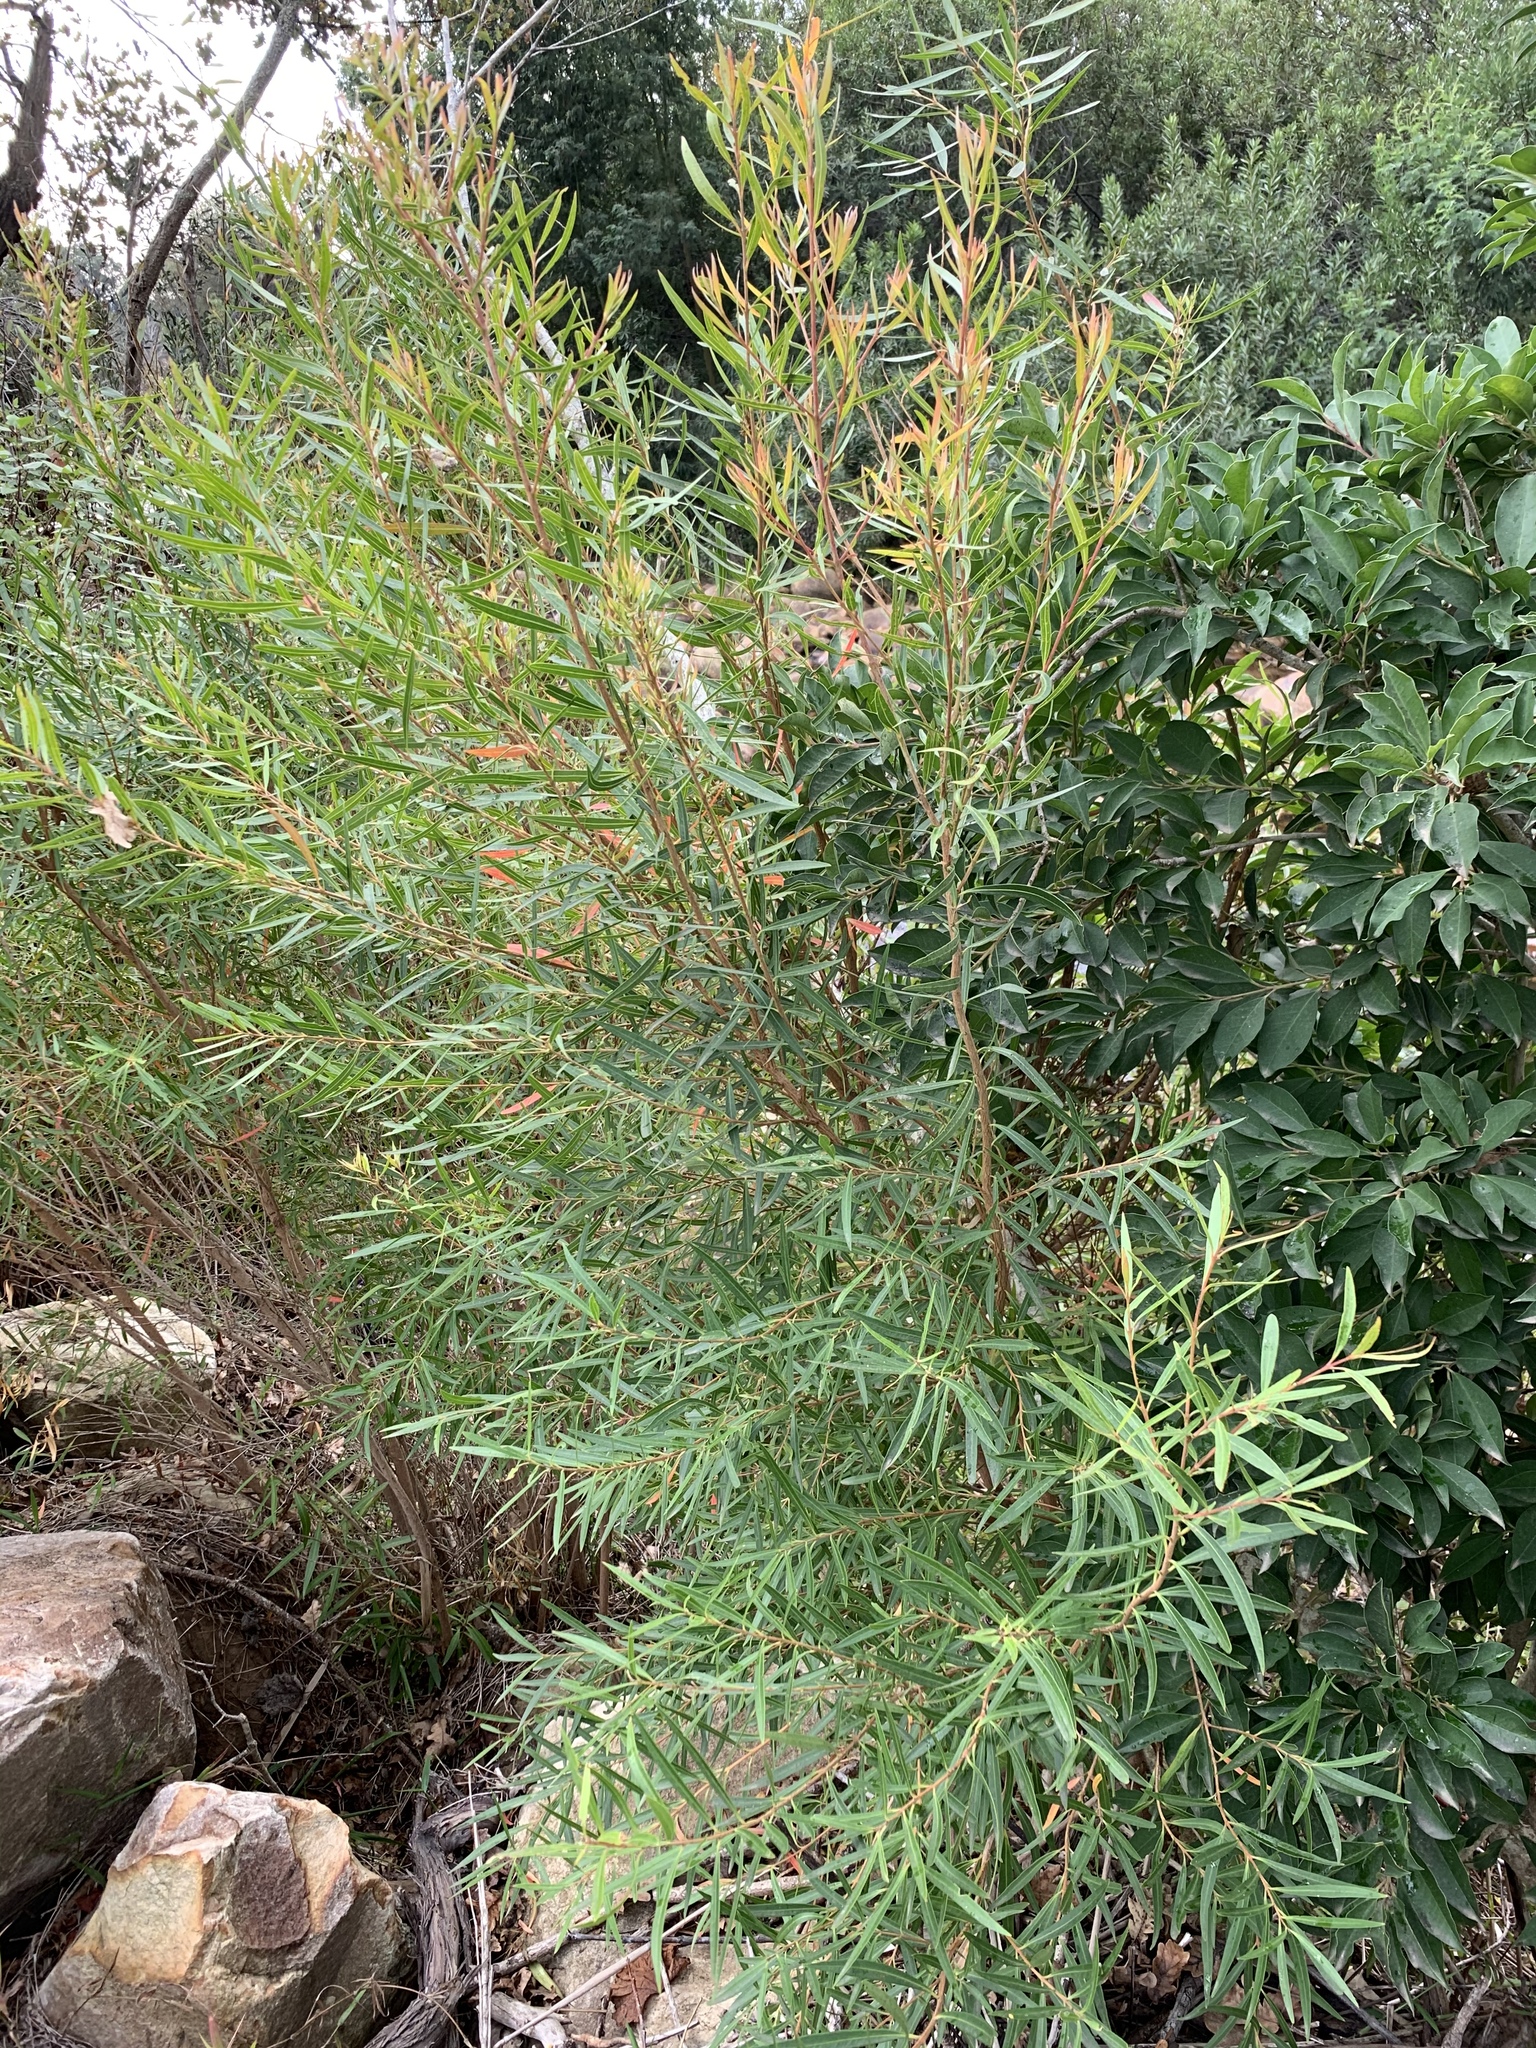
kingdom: Plantae
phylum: Tracheophyta
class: Magnoliopsida
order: Myrtales
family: Myrtaceae
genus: Callistemon
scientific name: Callistemon lanceolatus
